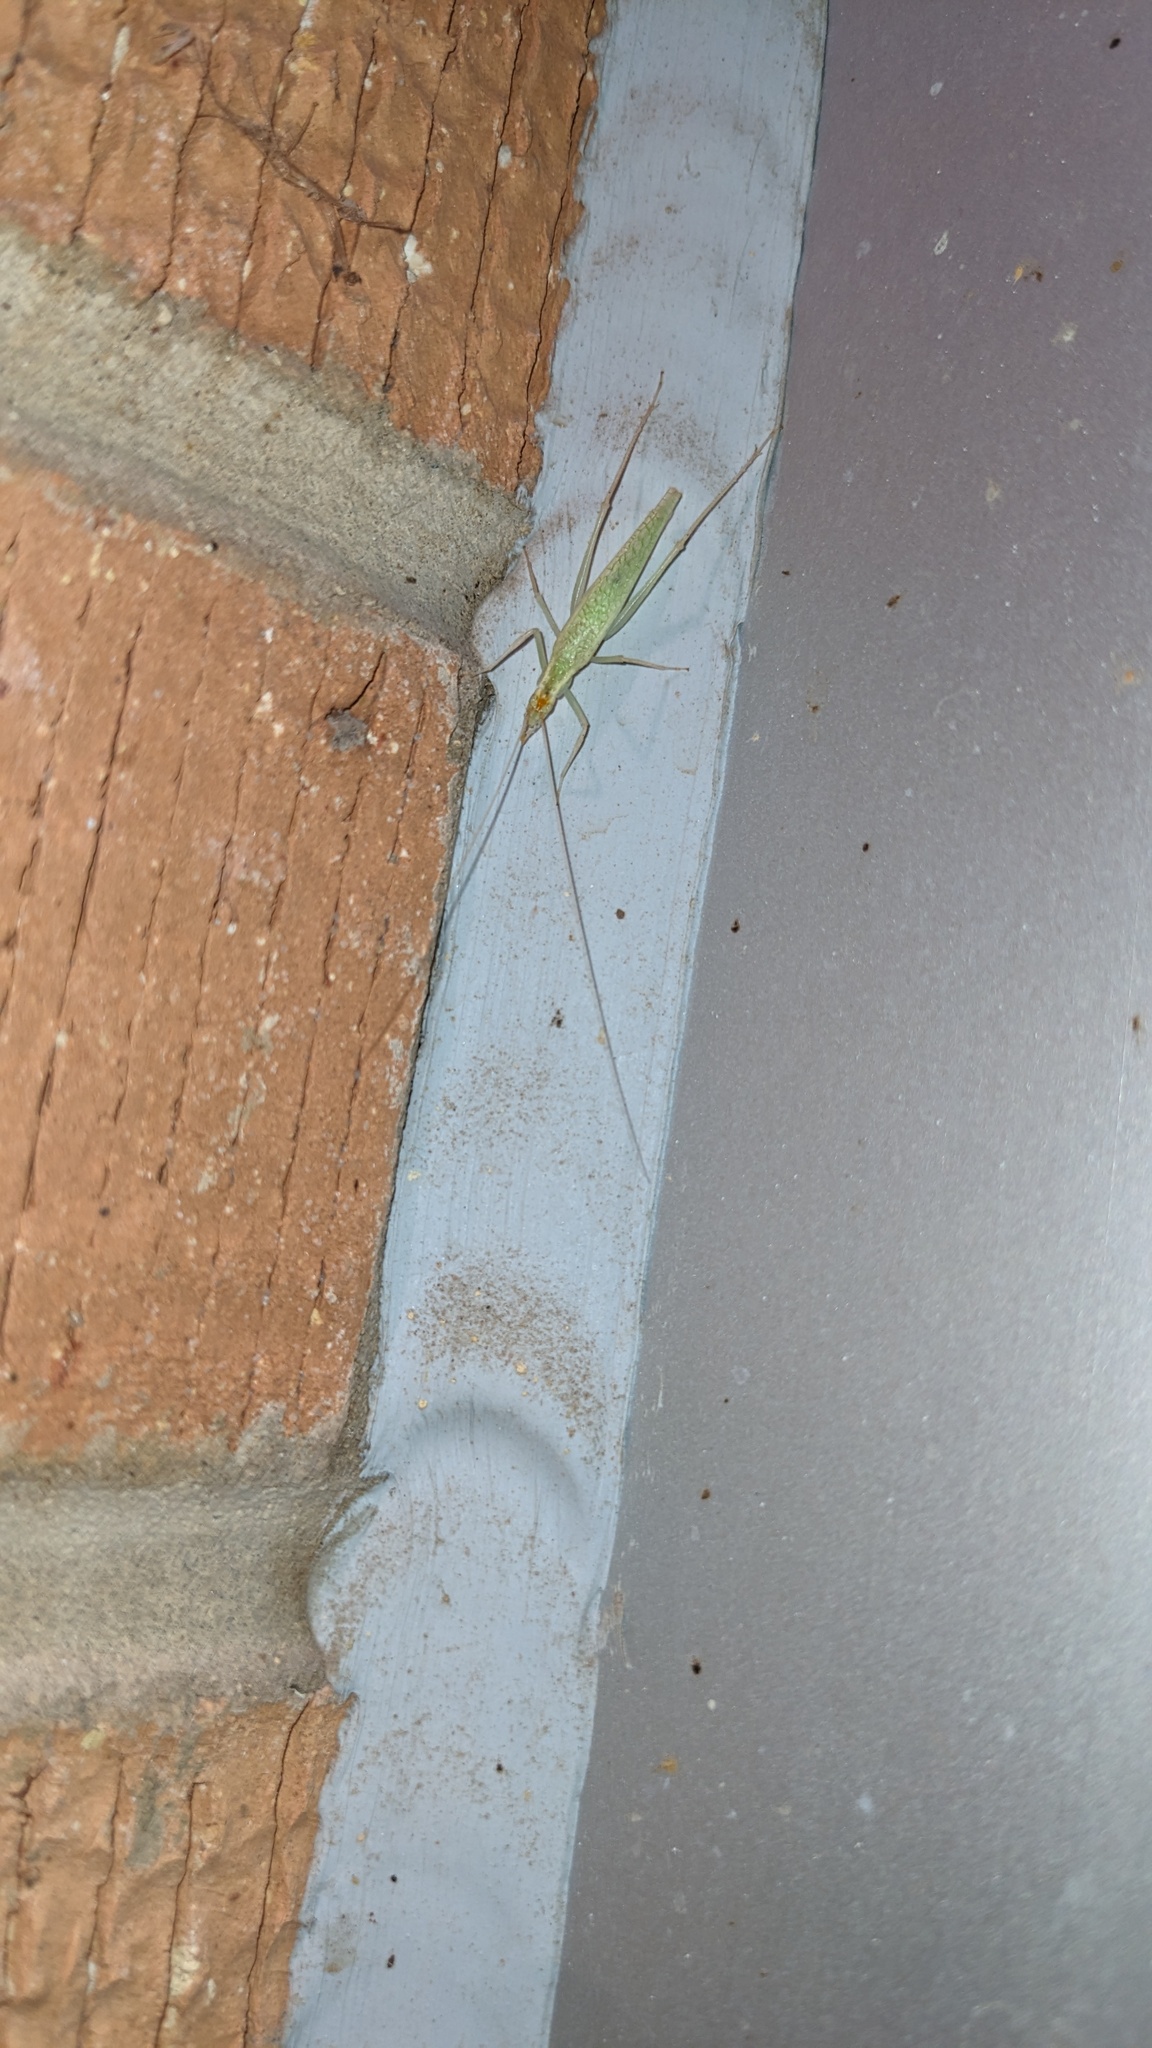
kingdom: Animalia
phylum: Arthropoda
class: Insecta
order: Orthoptera
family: Gryllidae
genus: Oecanthus
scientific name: Oecanthus
